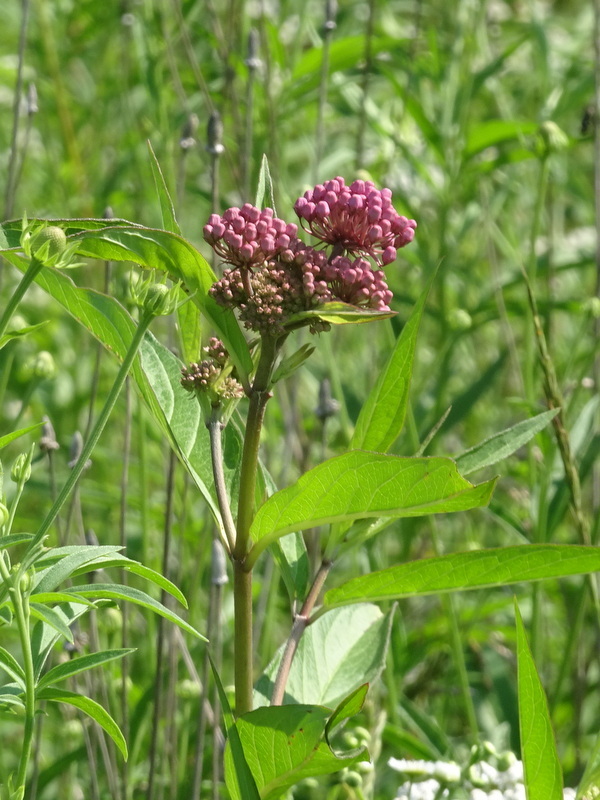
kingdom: Plantae
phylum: Tracheophyta
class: Magnoliopsida
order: Gentianales
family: Apocynaceae
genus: Asclepias
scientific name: Asclepias incarnata
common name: Swamp milkweed
